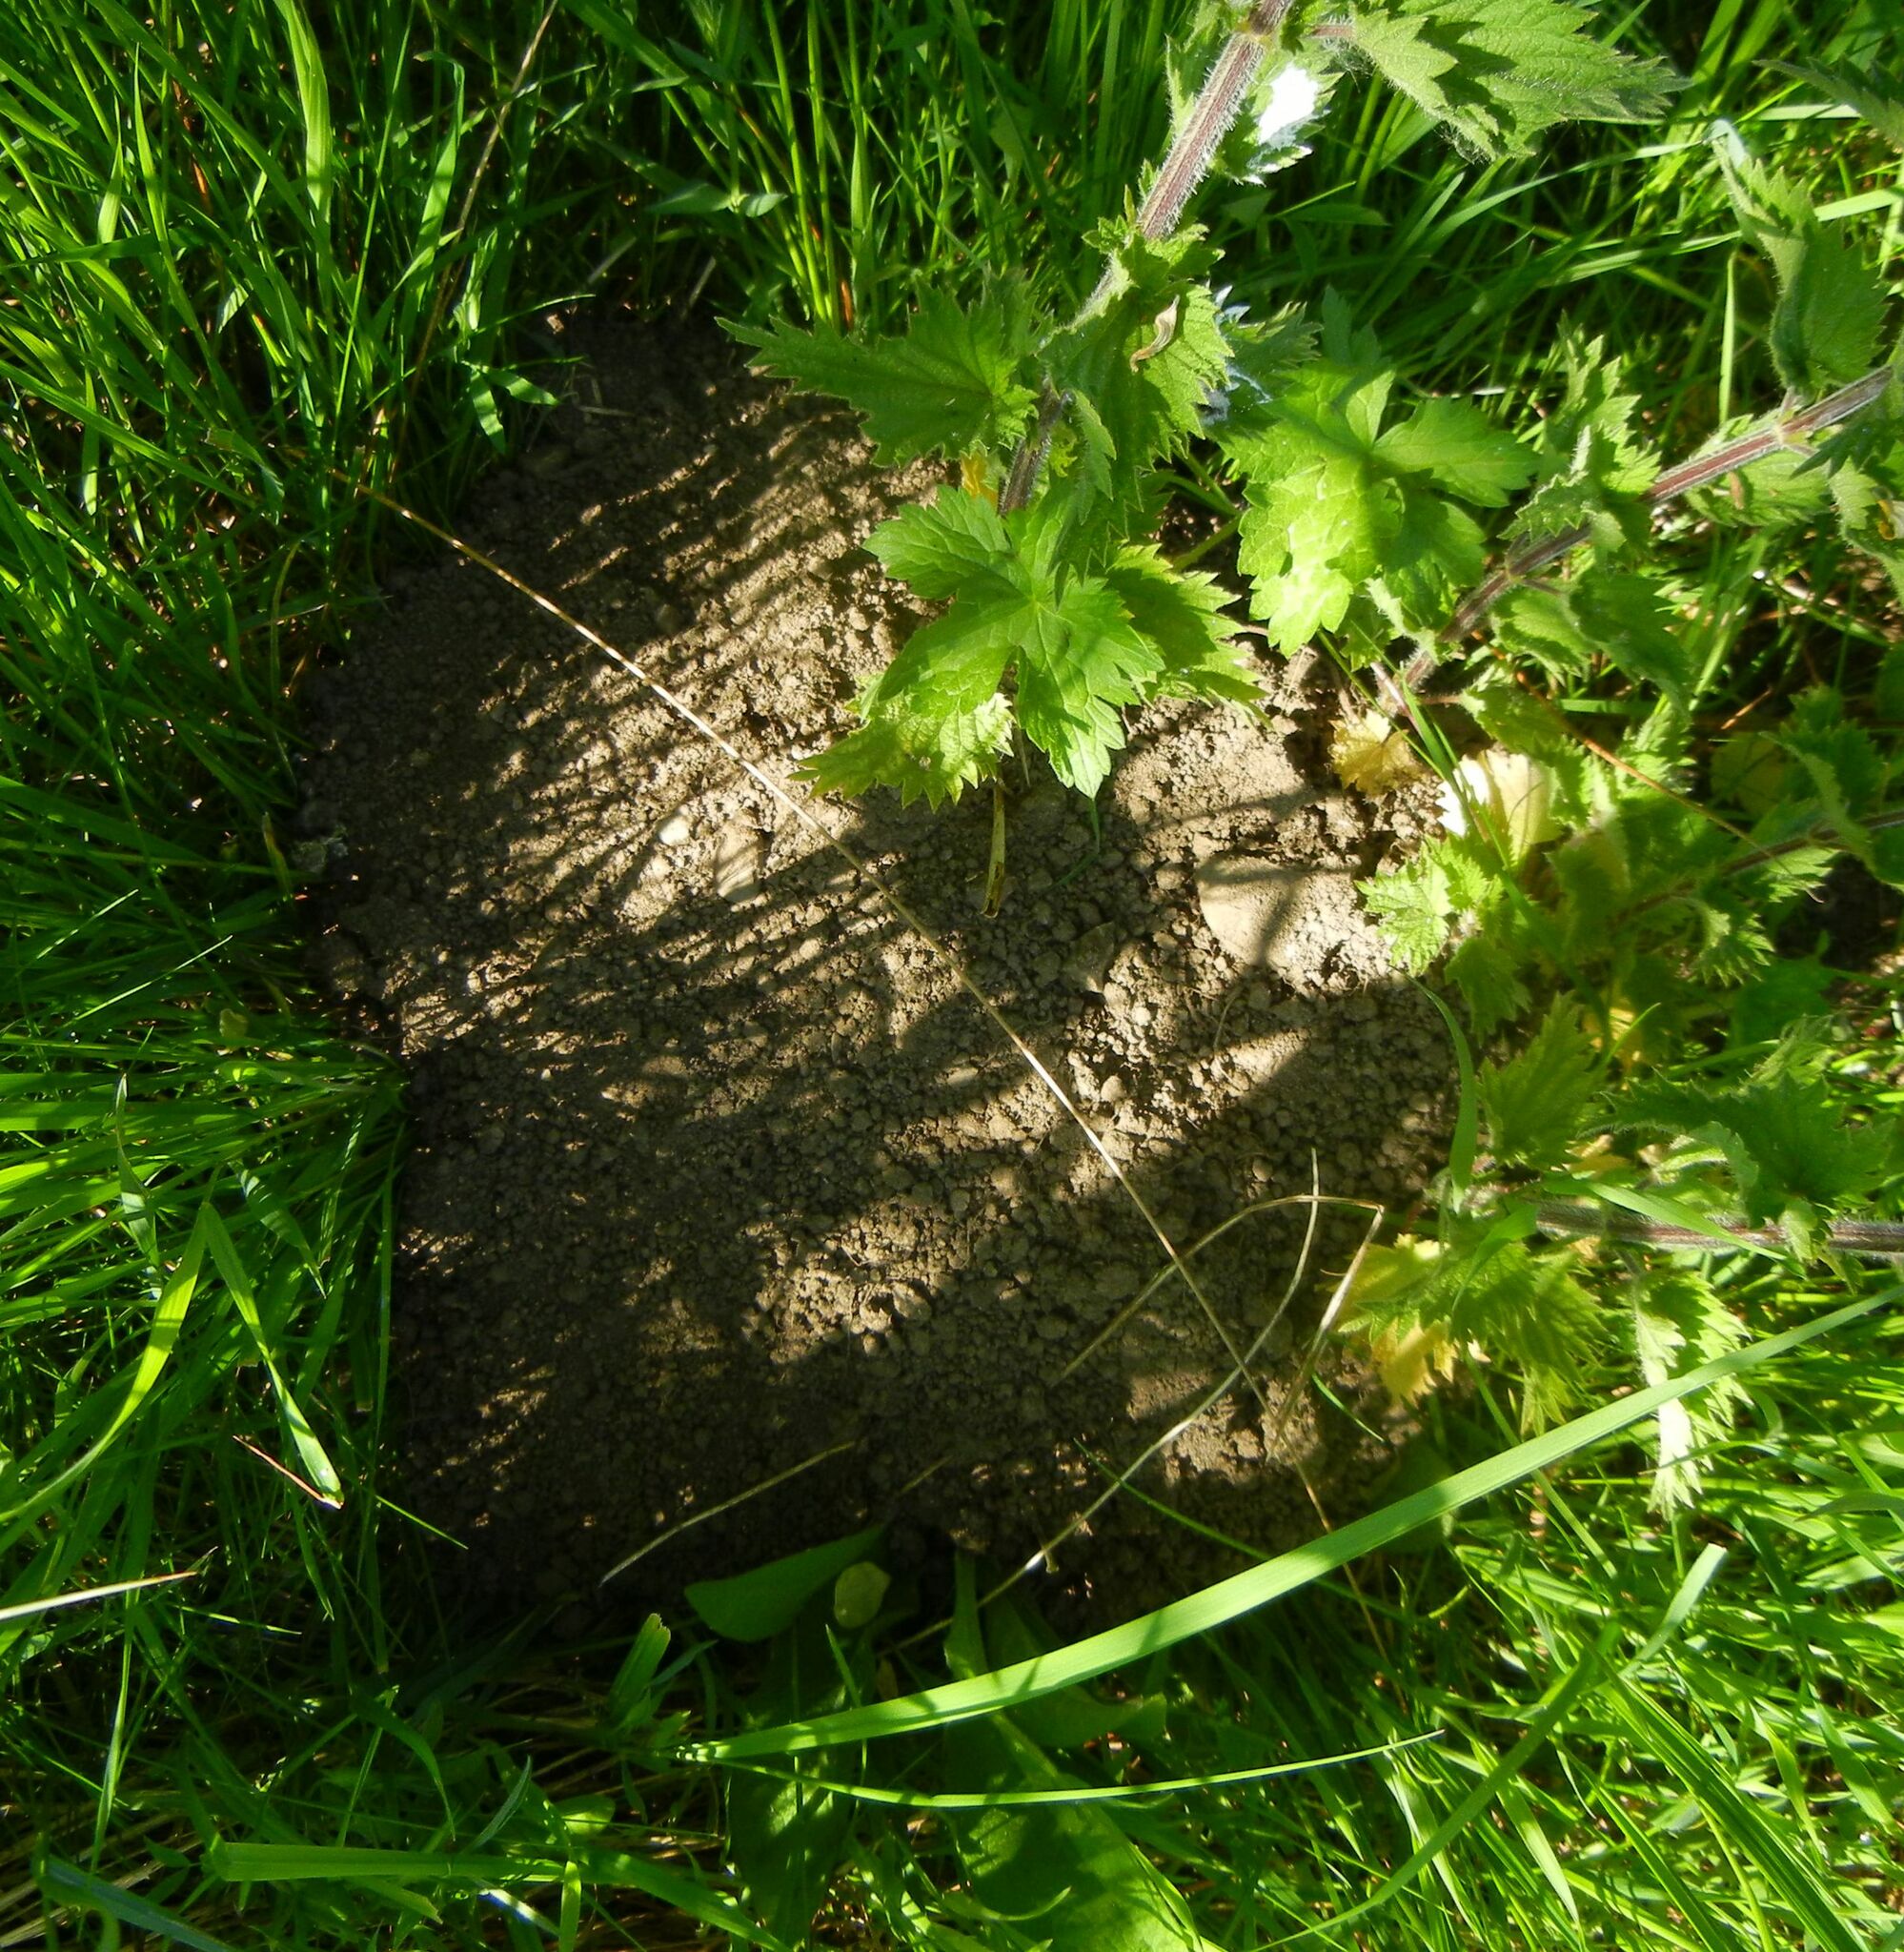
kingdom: Animalia
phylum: Chordata
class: Mammalia
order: Soricomorpha
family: Talpidae
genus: Talpa
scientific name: Talpa europaea
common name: European mole
